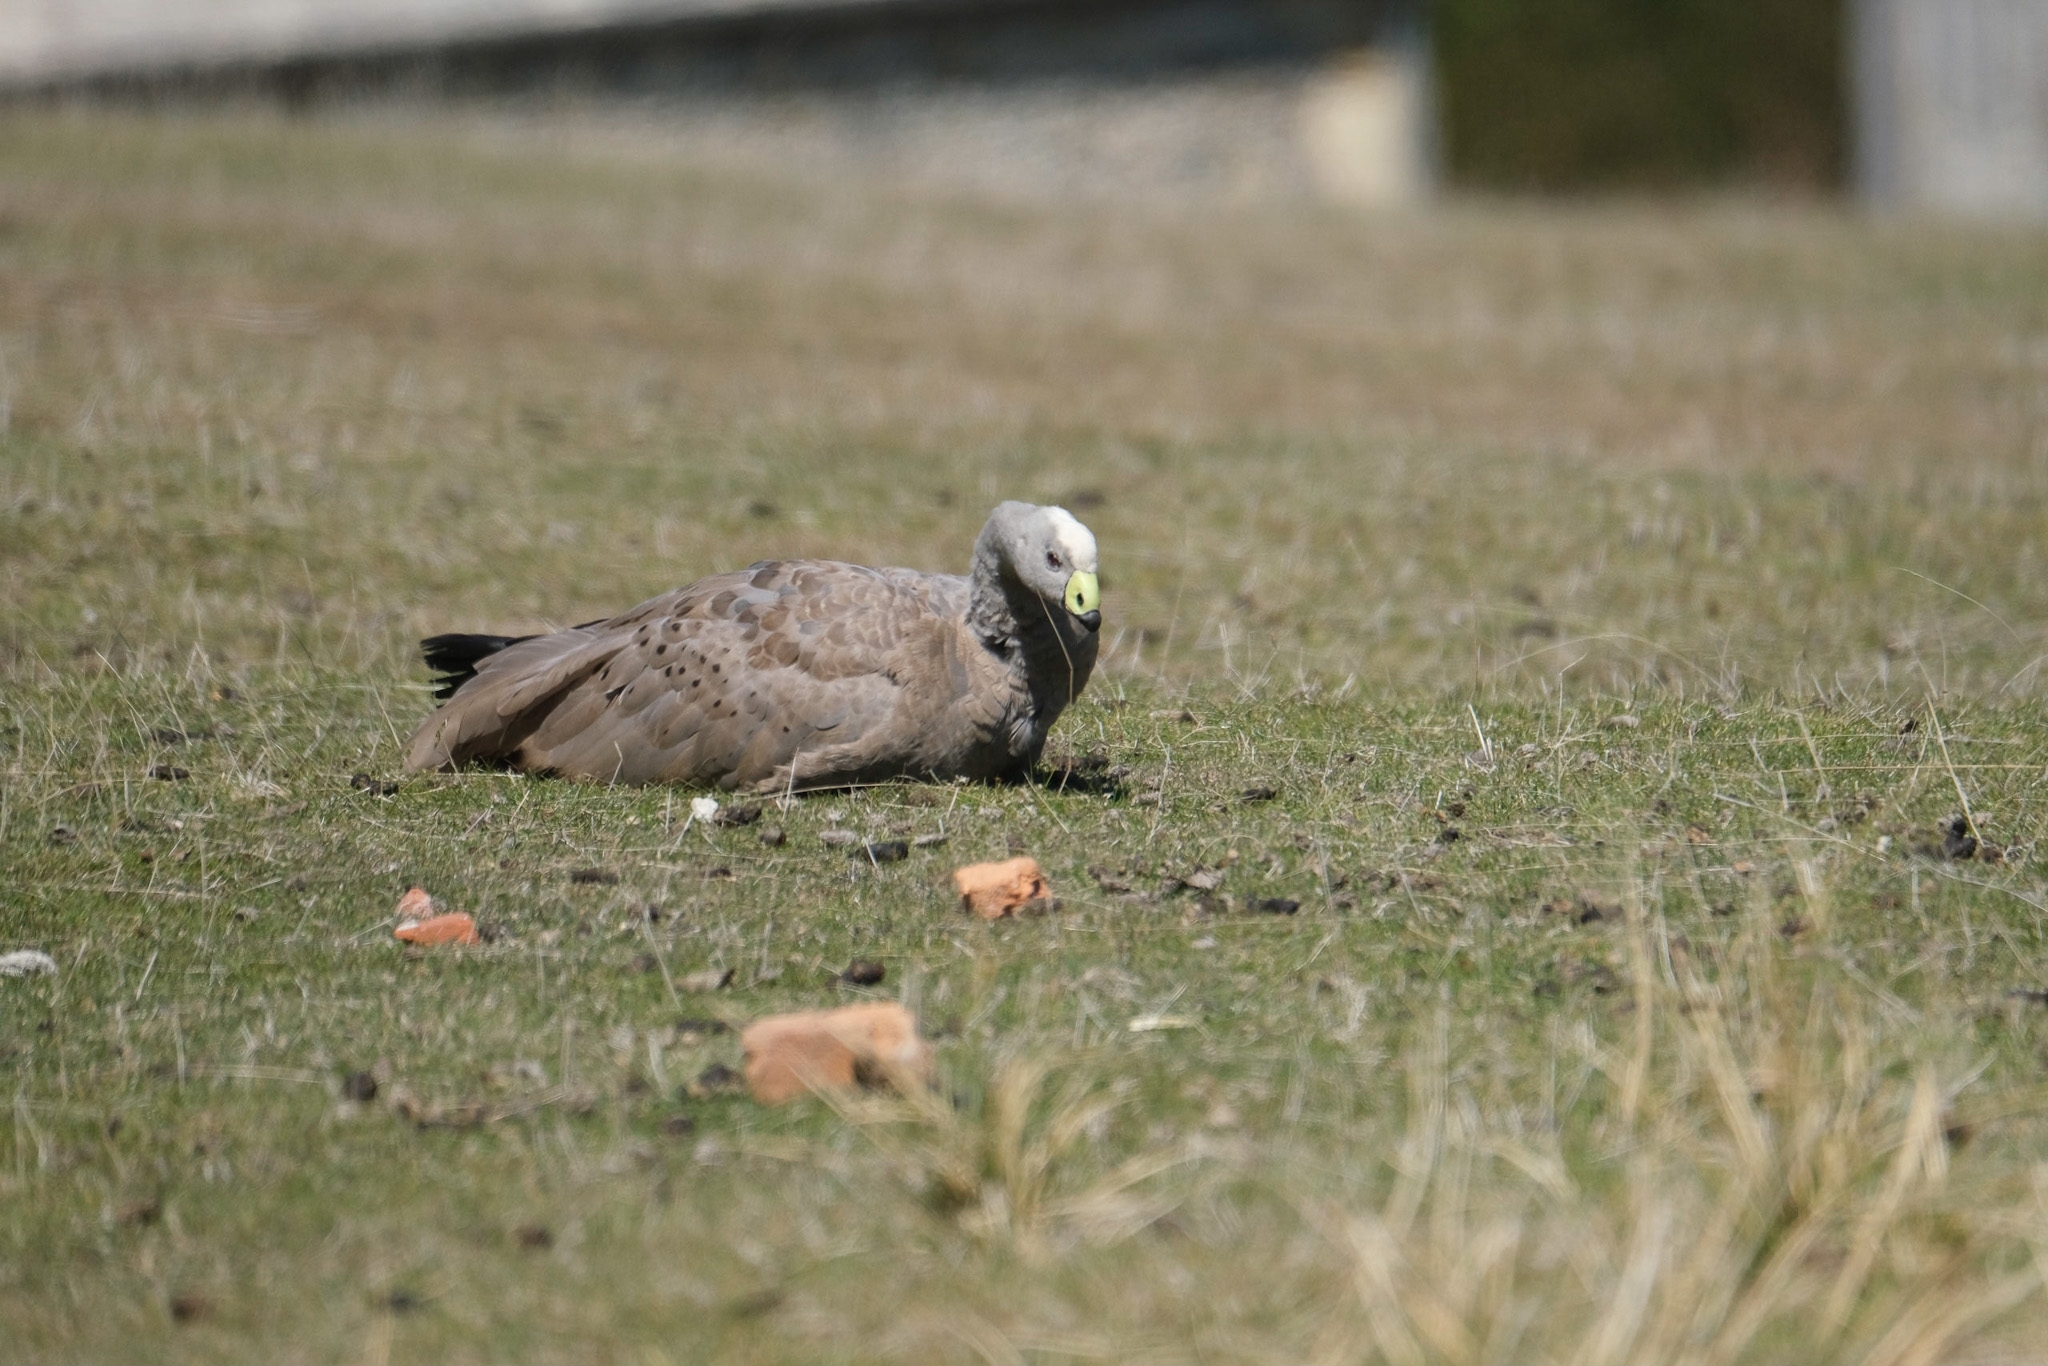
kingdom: Animalia
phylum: Chordata
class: Aves
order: Anseriformes
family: Anatidae
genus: Cereopsis
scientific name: Cereopsis novaehollandiae
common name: Cape barren goose
